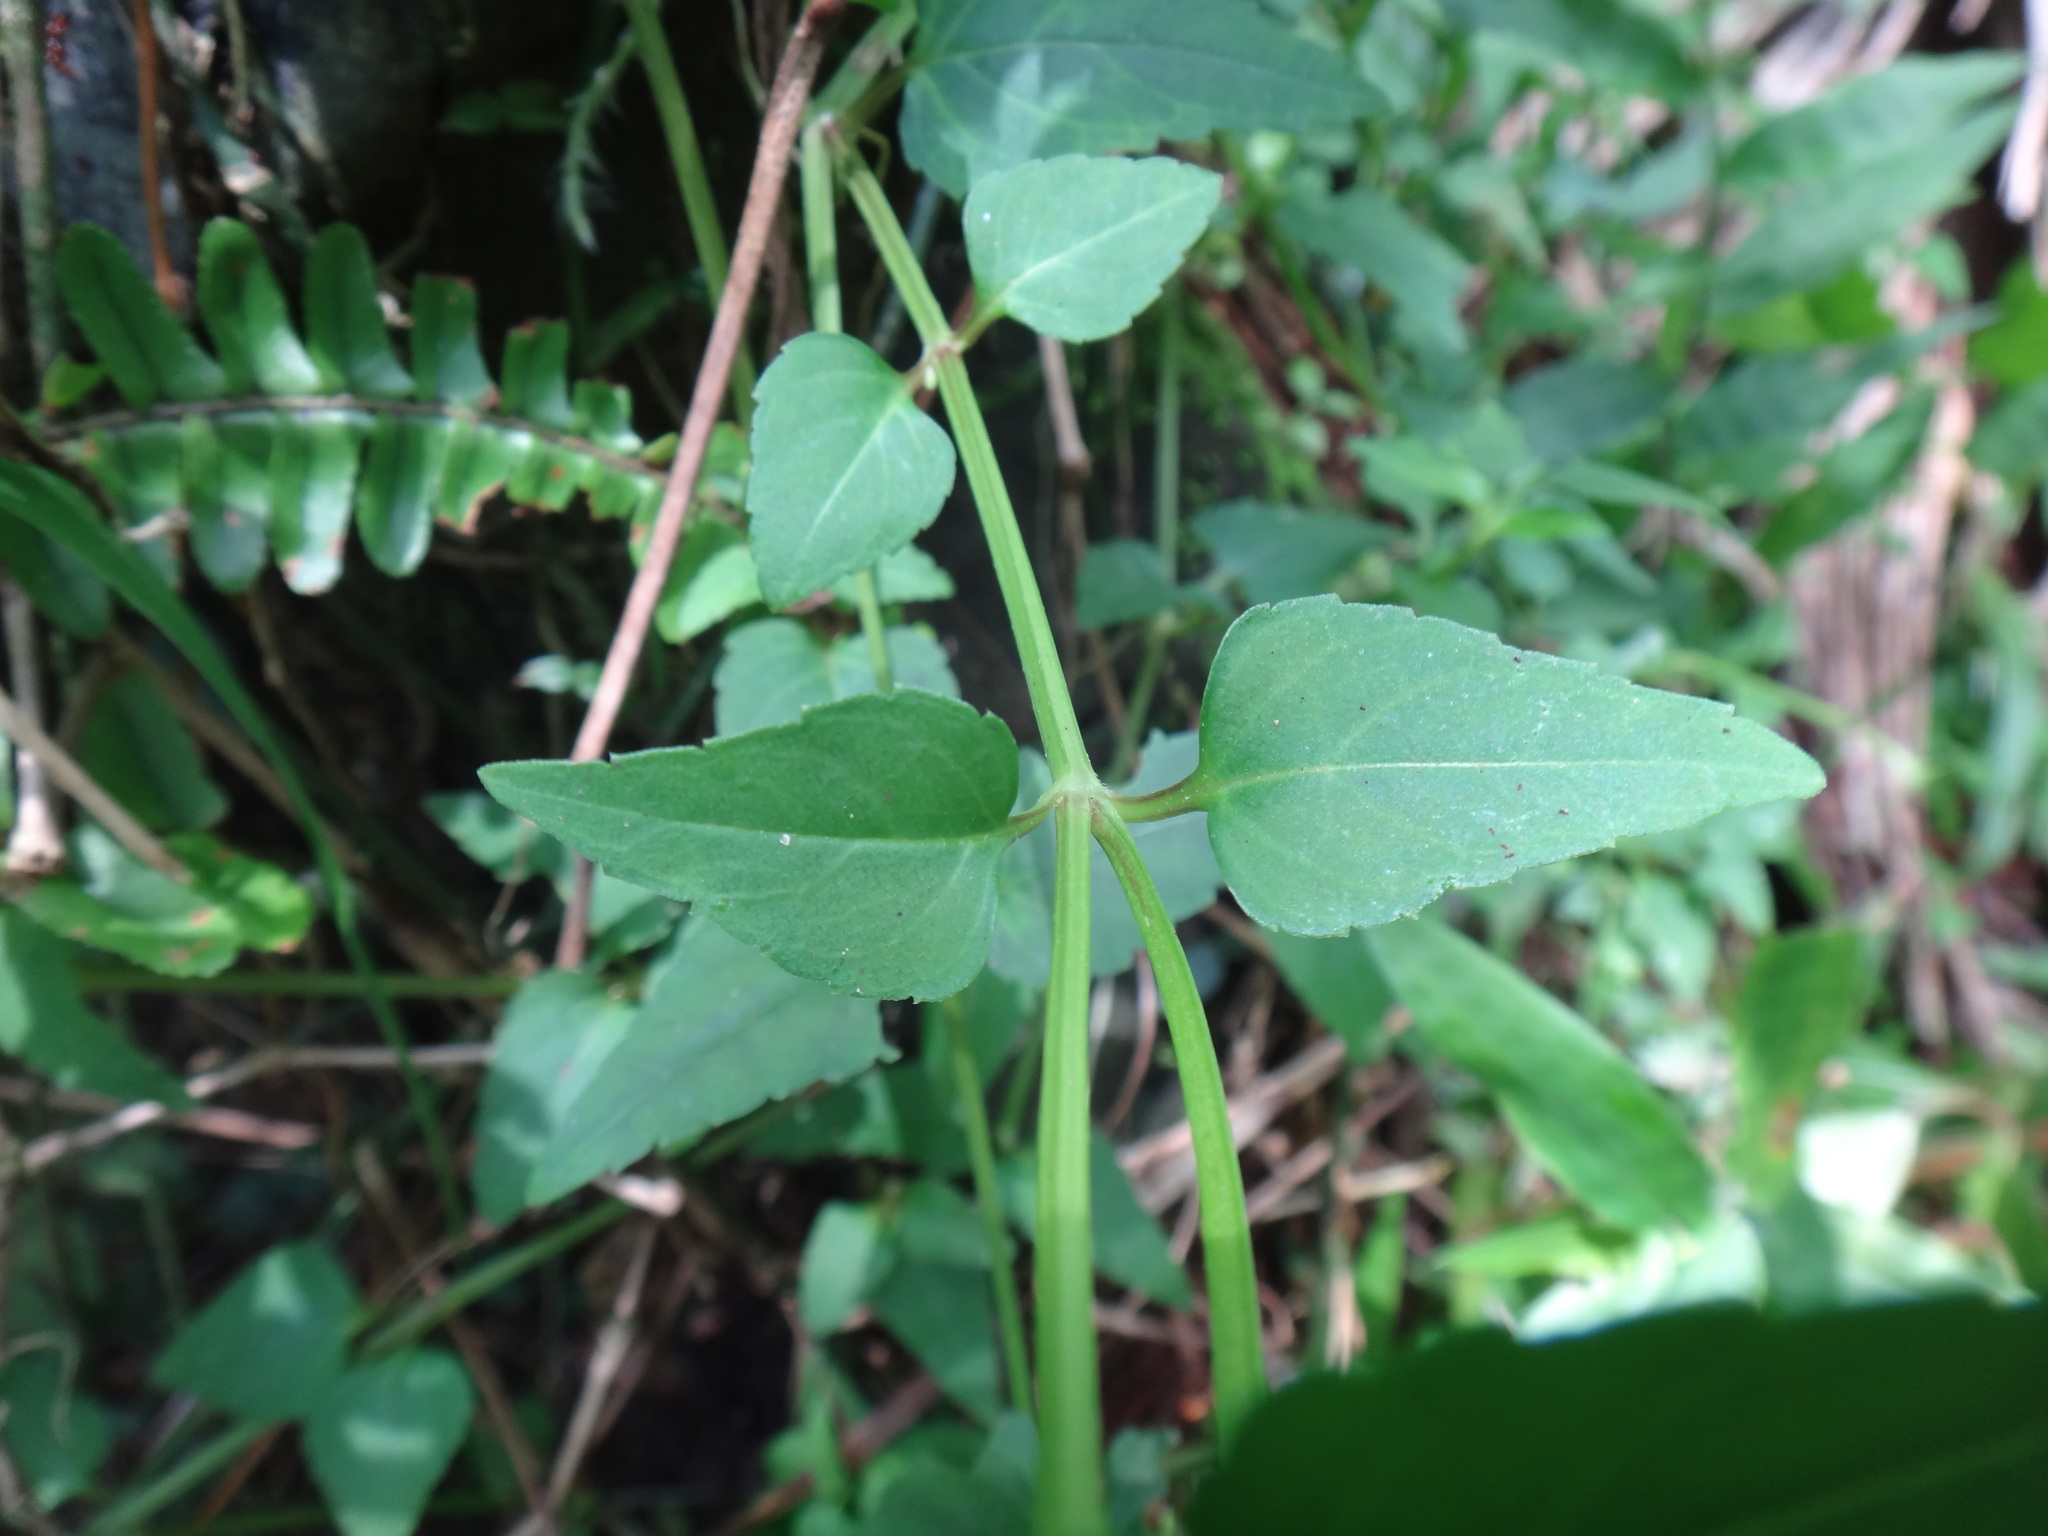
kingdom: Plantae
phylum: Tracheophyta
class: Magnoliopsida
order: Lamiales
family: Linderniaceae
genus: Torenia
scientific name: Torenia concolor
